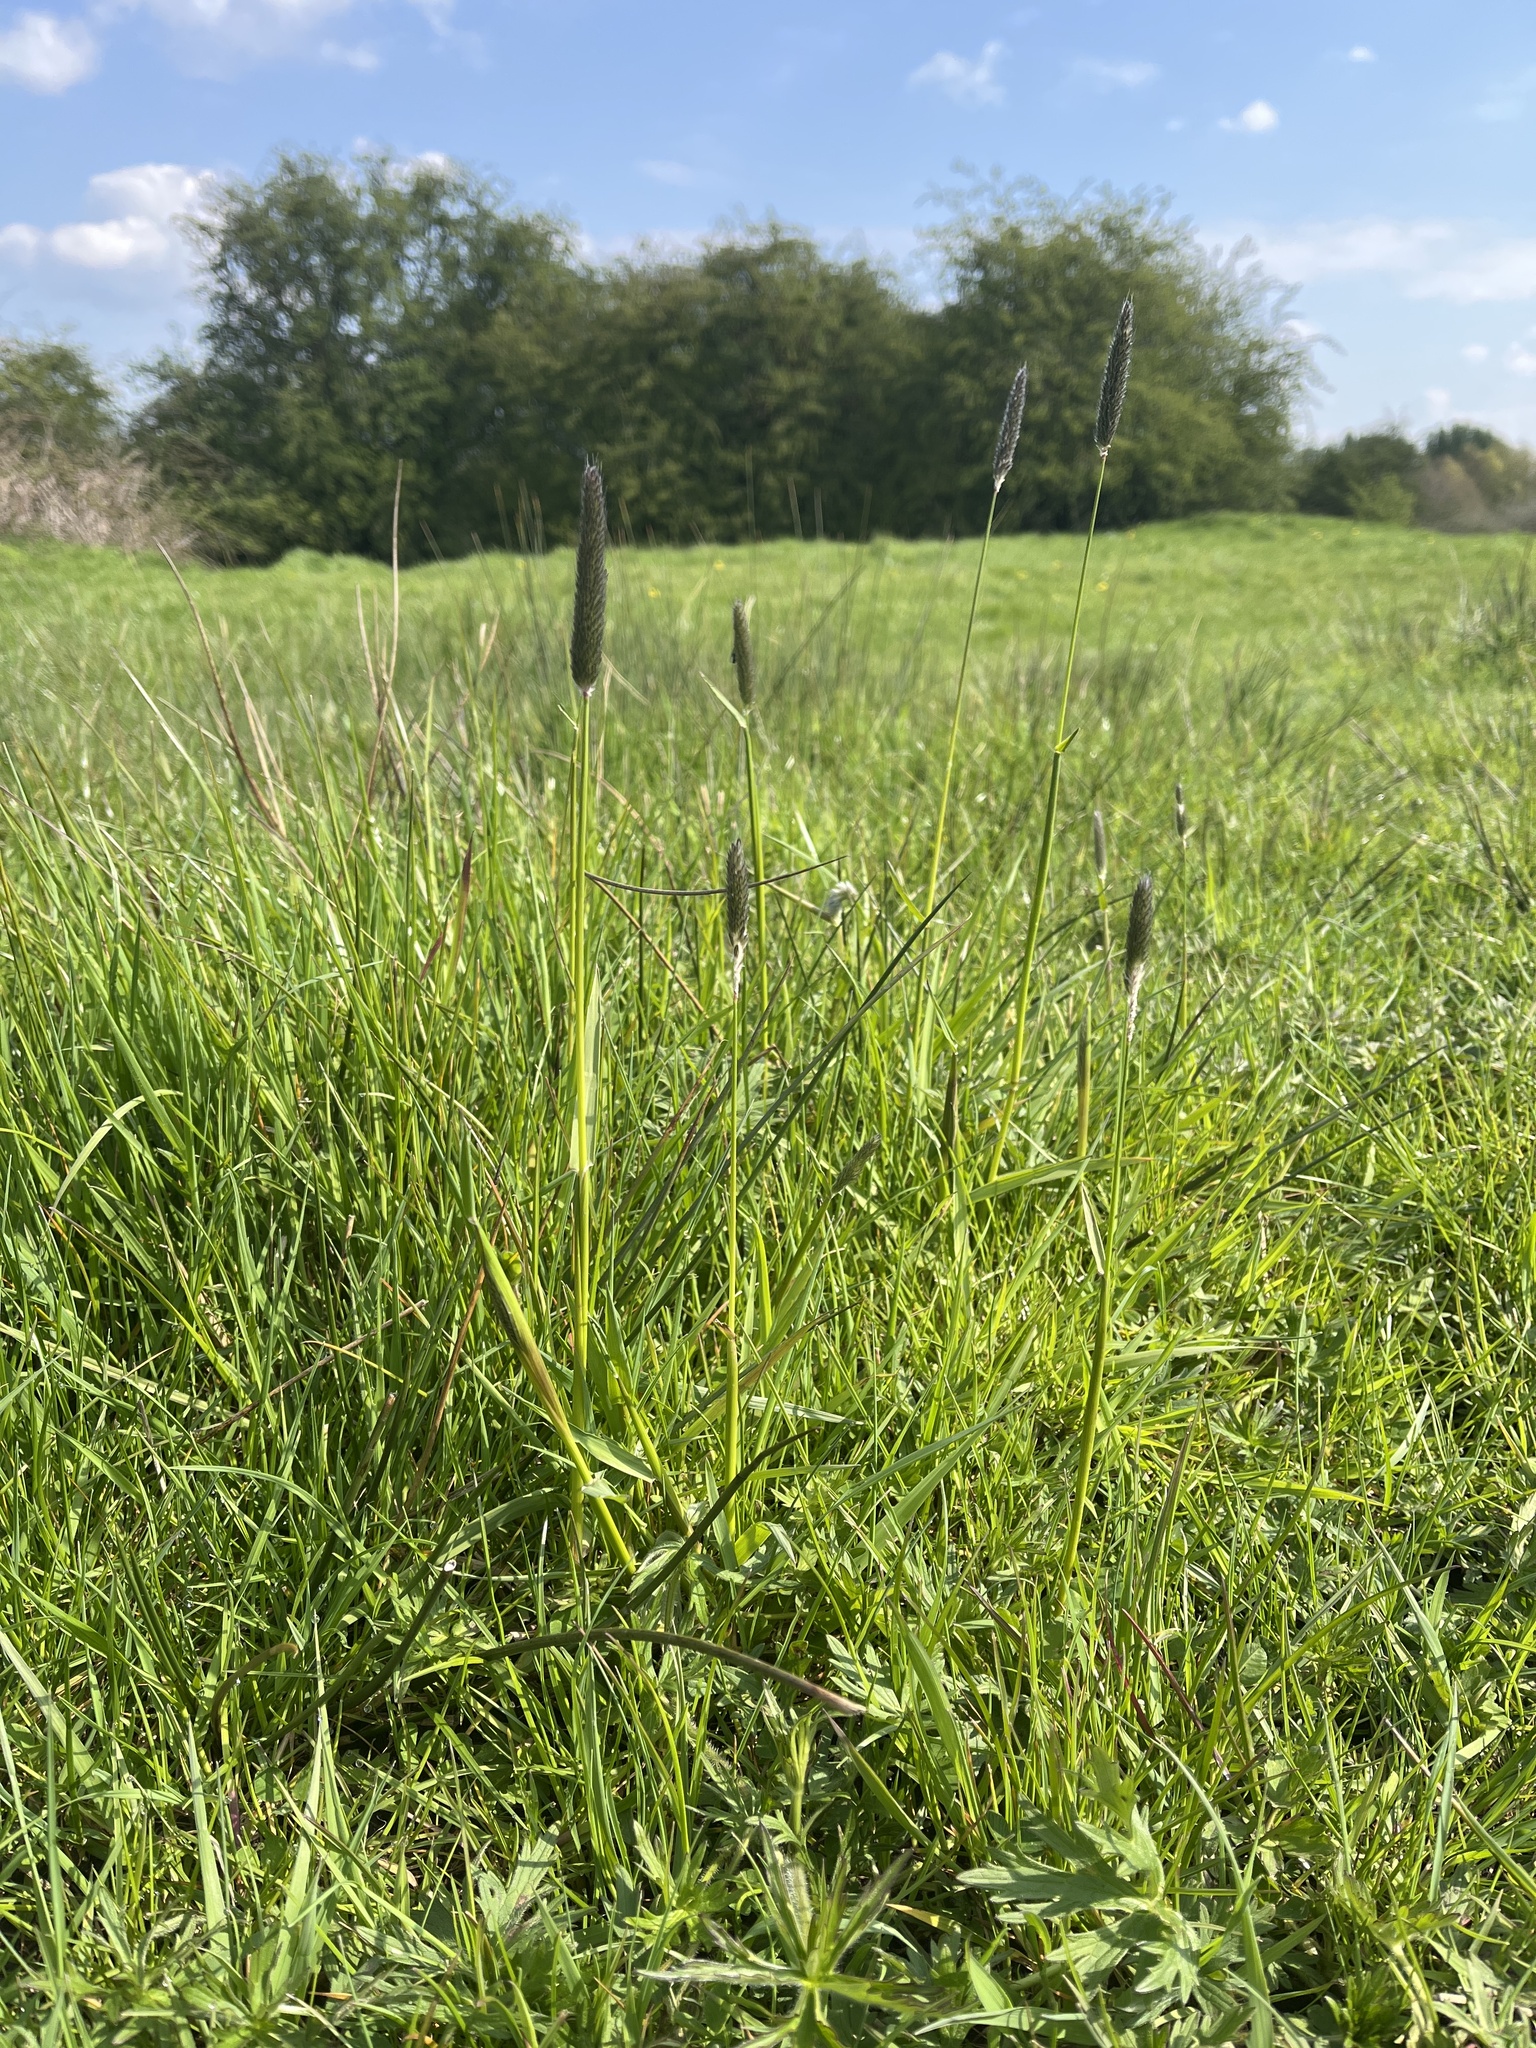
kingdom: Plantae
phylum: Tracheophyta
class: Liliopsida
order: Poales
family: Poaceae
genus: Alopecurus
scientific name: Alopecurus pratensis
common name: Meadow foxtail
